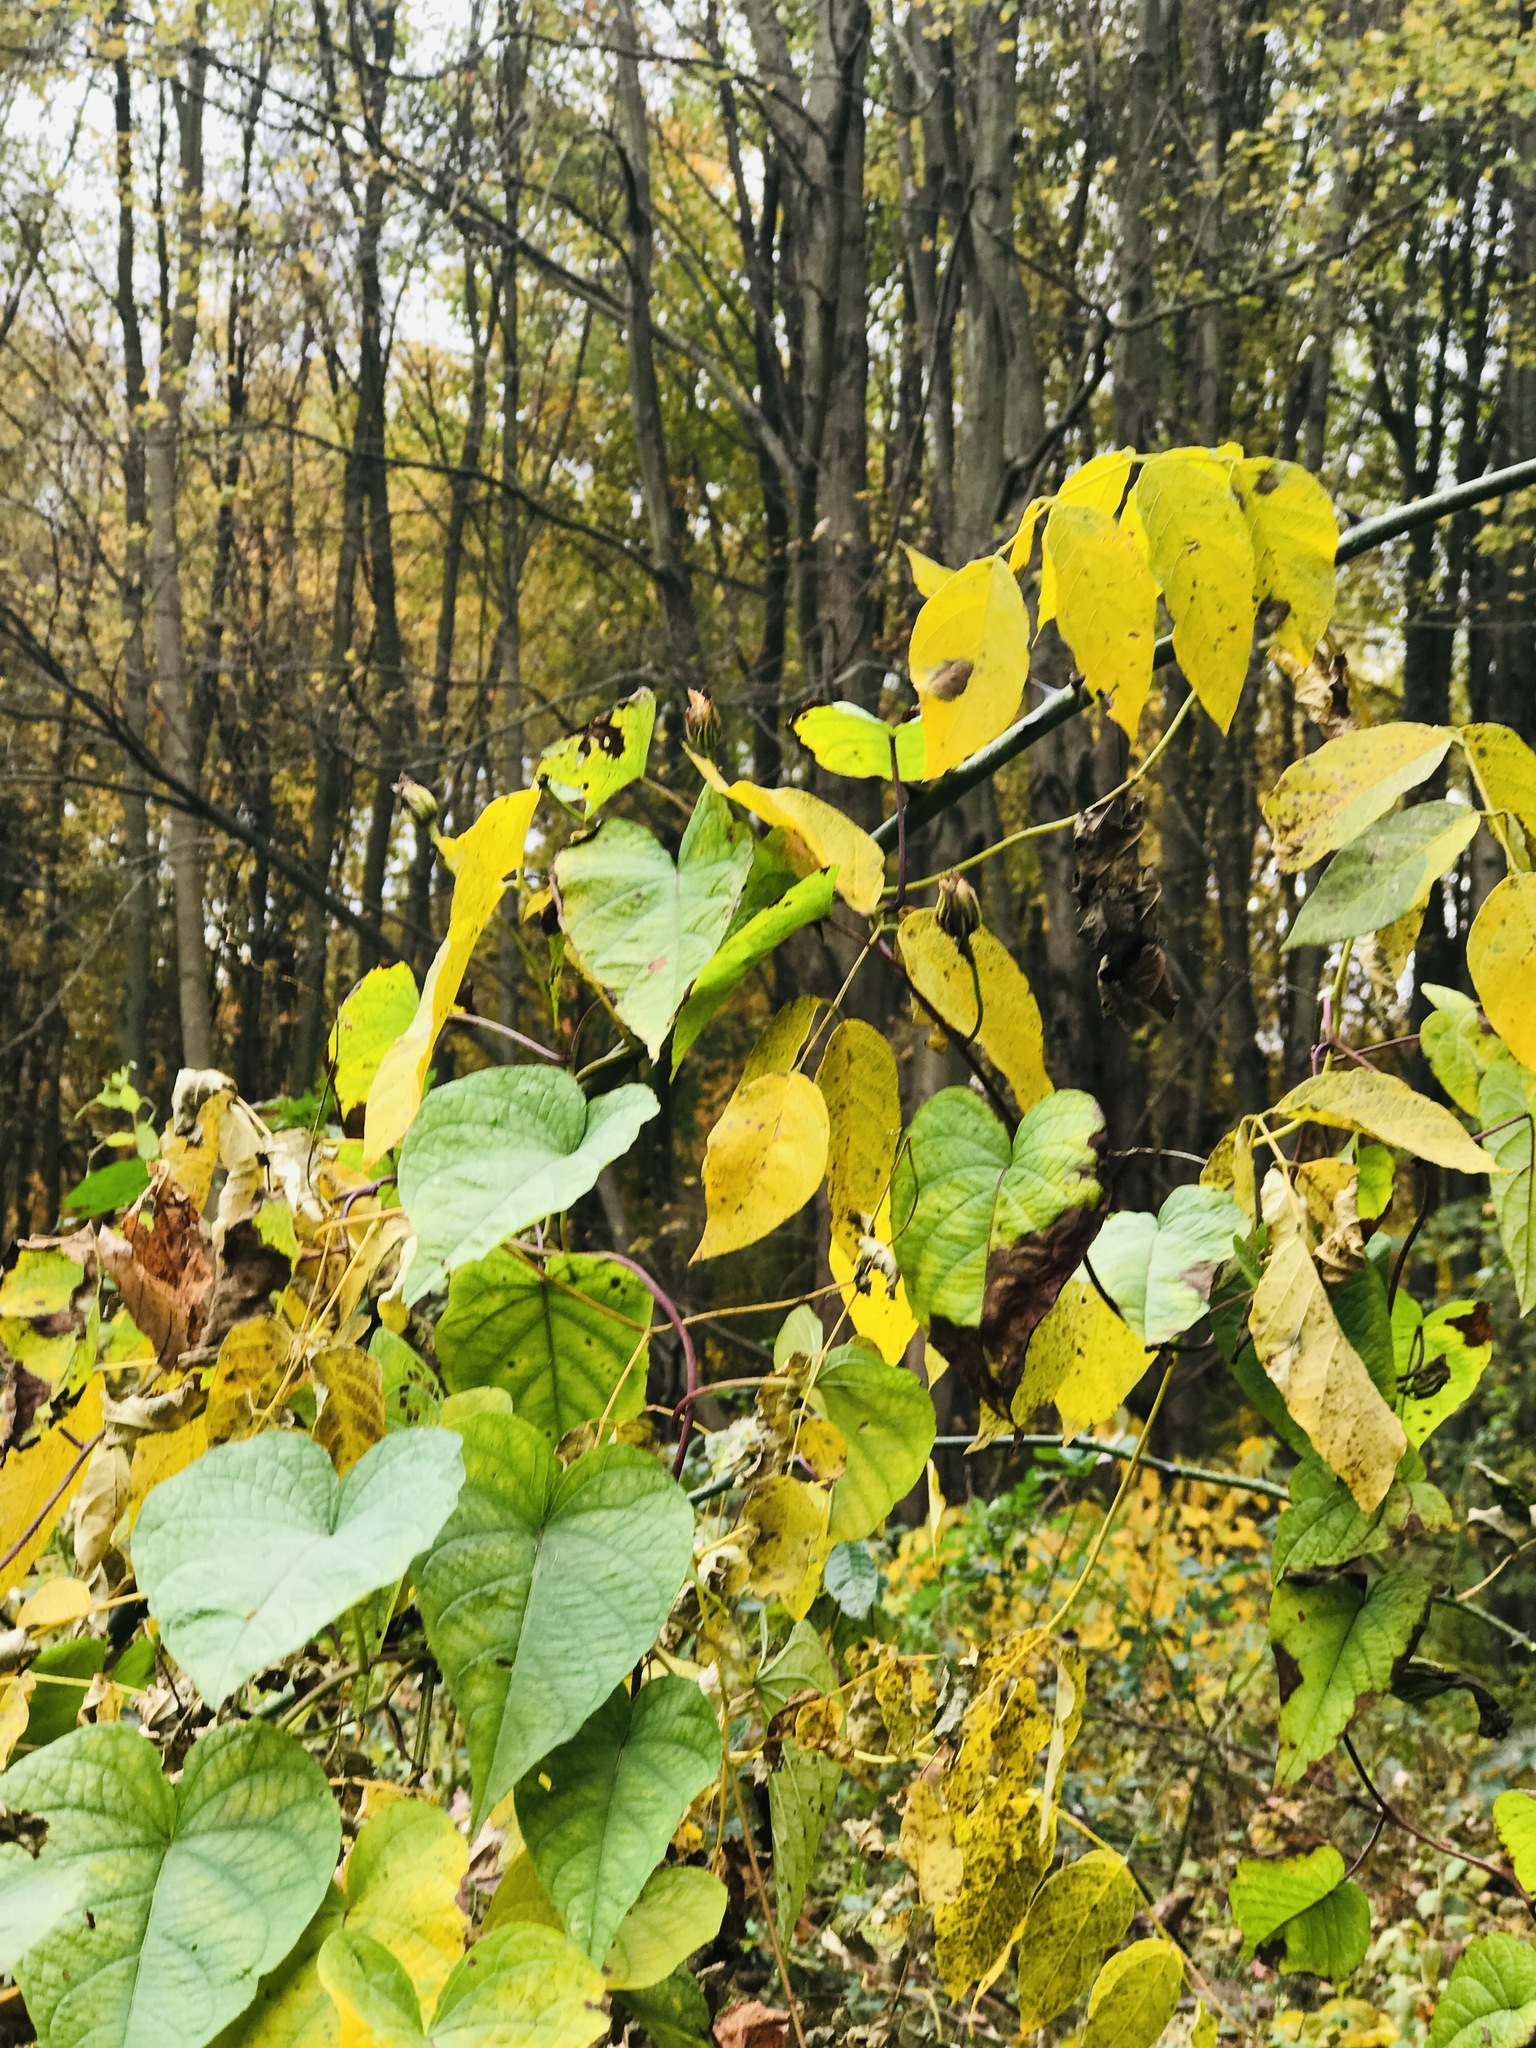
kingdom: Plantae
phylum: Tracheophyta
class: Magnoliopsida
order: Solanales
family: Convolvulaceae
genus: Ipomoea
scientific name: Ipomoea pandurata
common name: Man-of-the-earth
